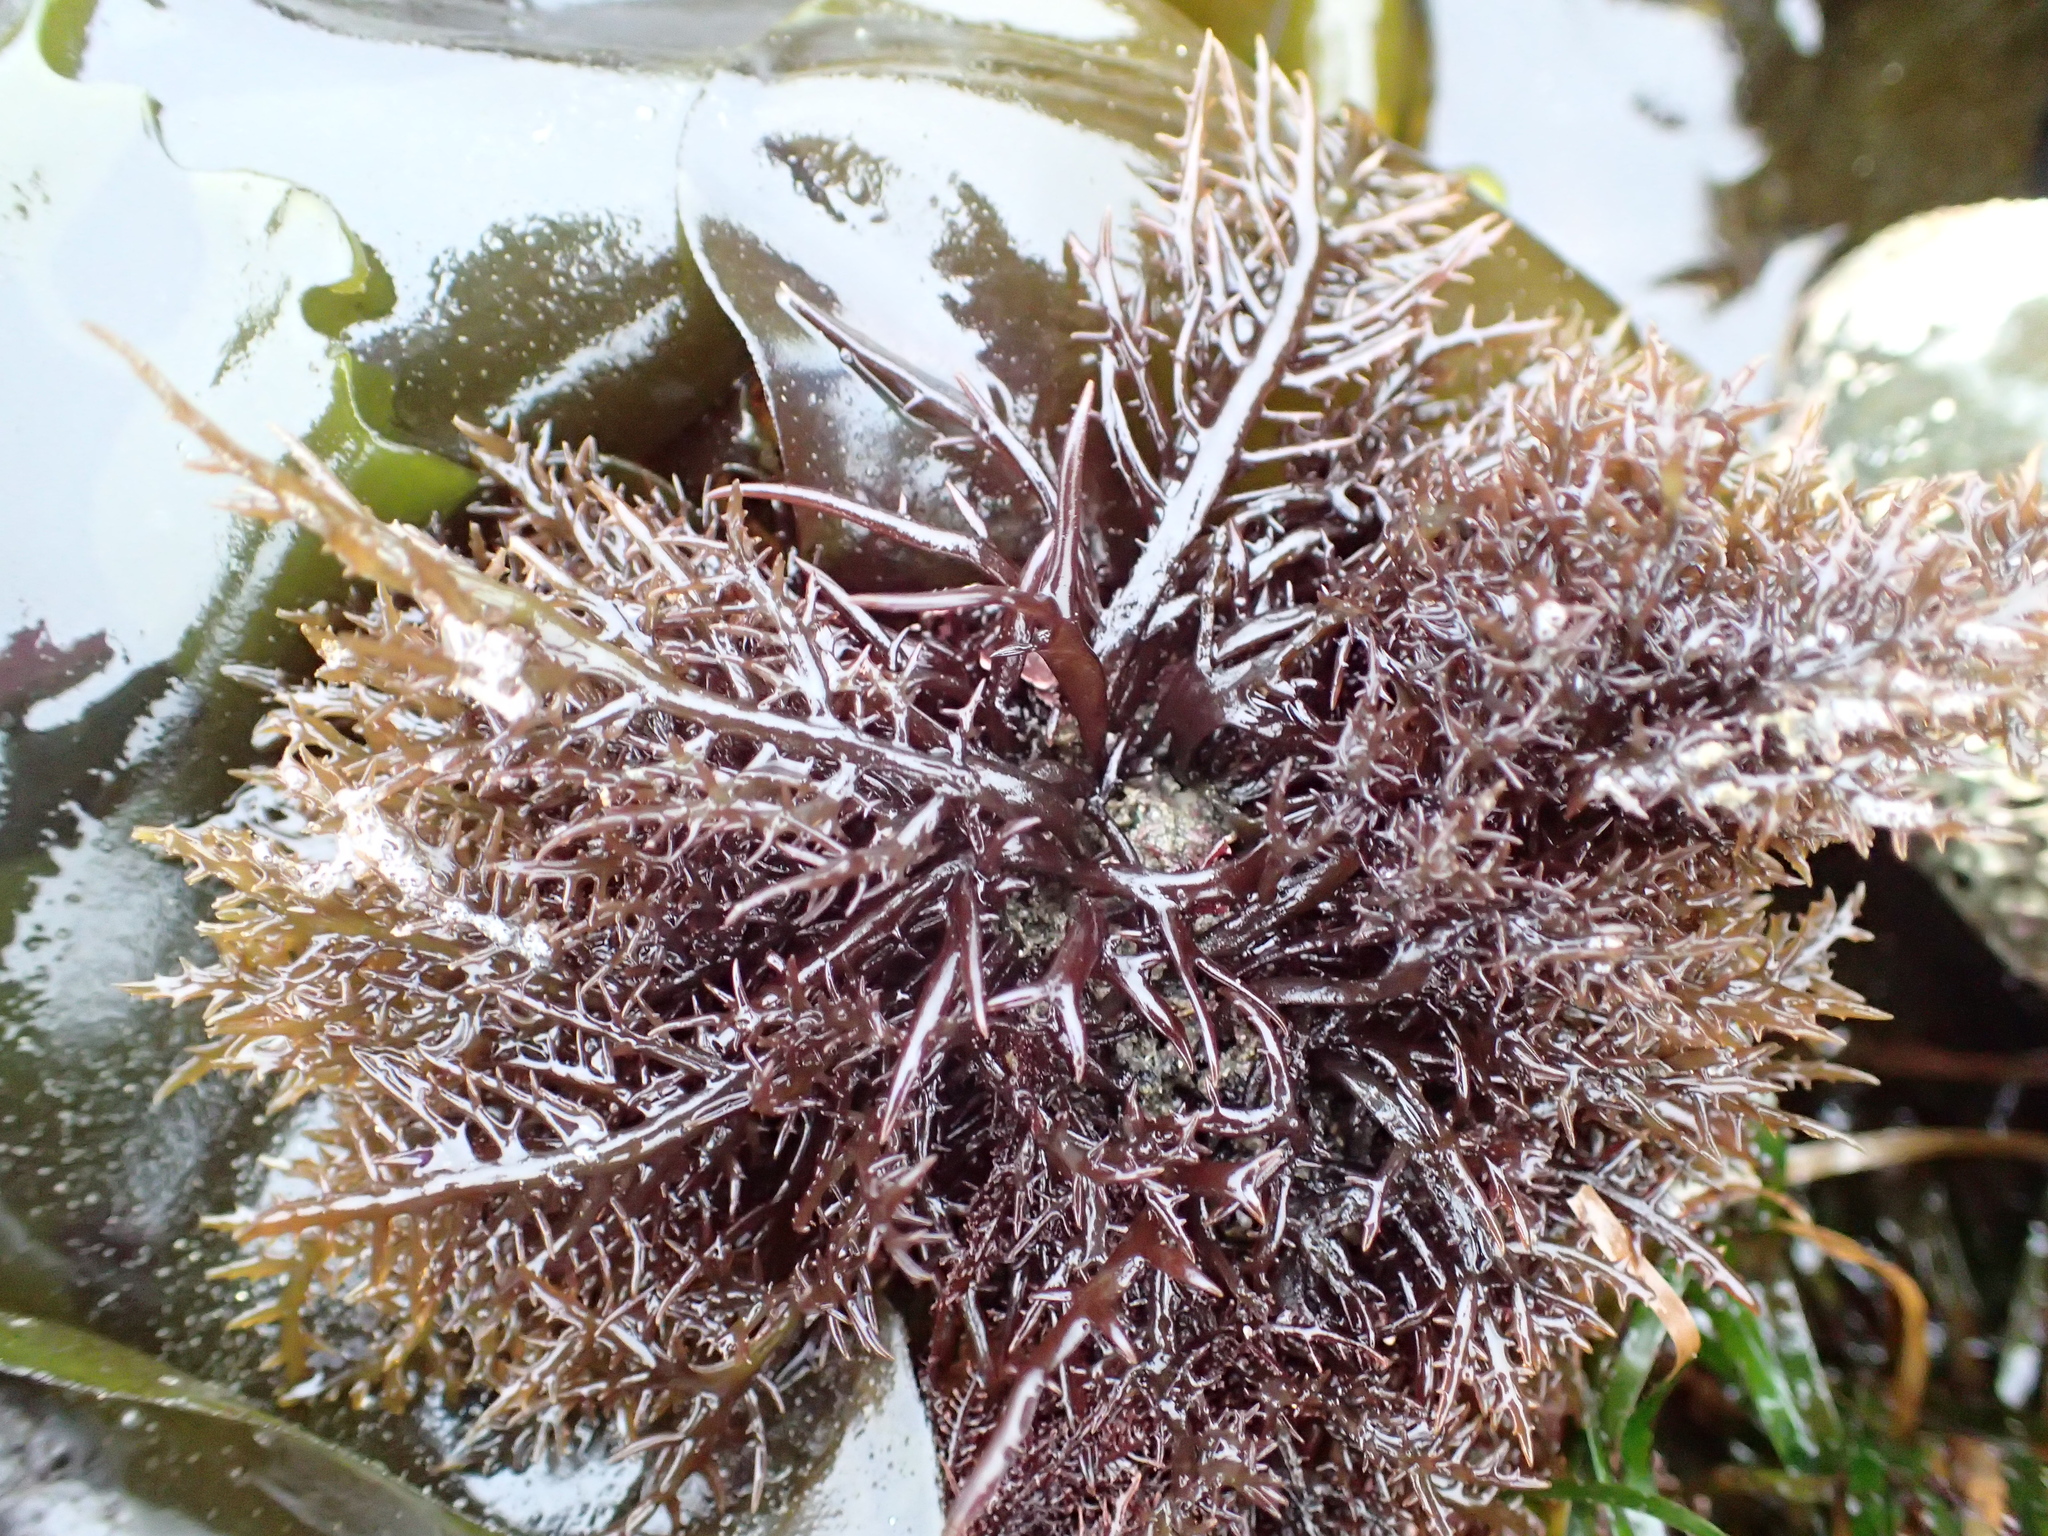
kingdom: Plantae
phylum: Rhodophyta
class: Florideophyceae
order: Gigartinales
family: Gigartinaceae
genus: Chondracanthus
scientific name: Chondracanthus canaliculatus
